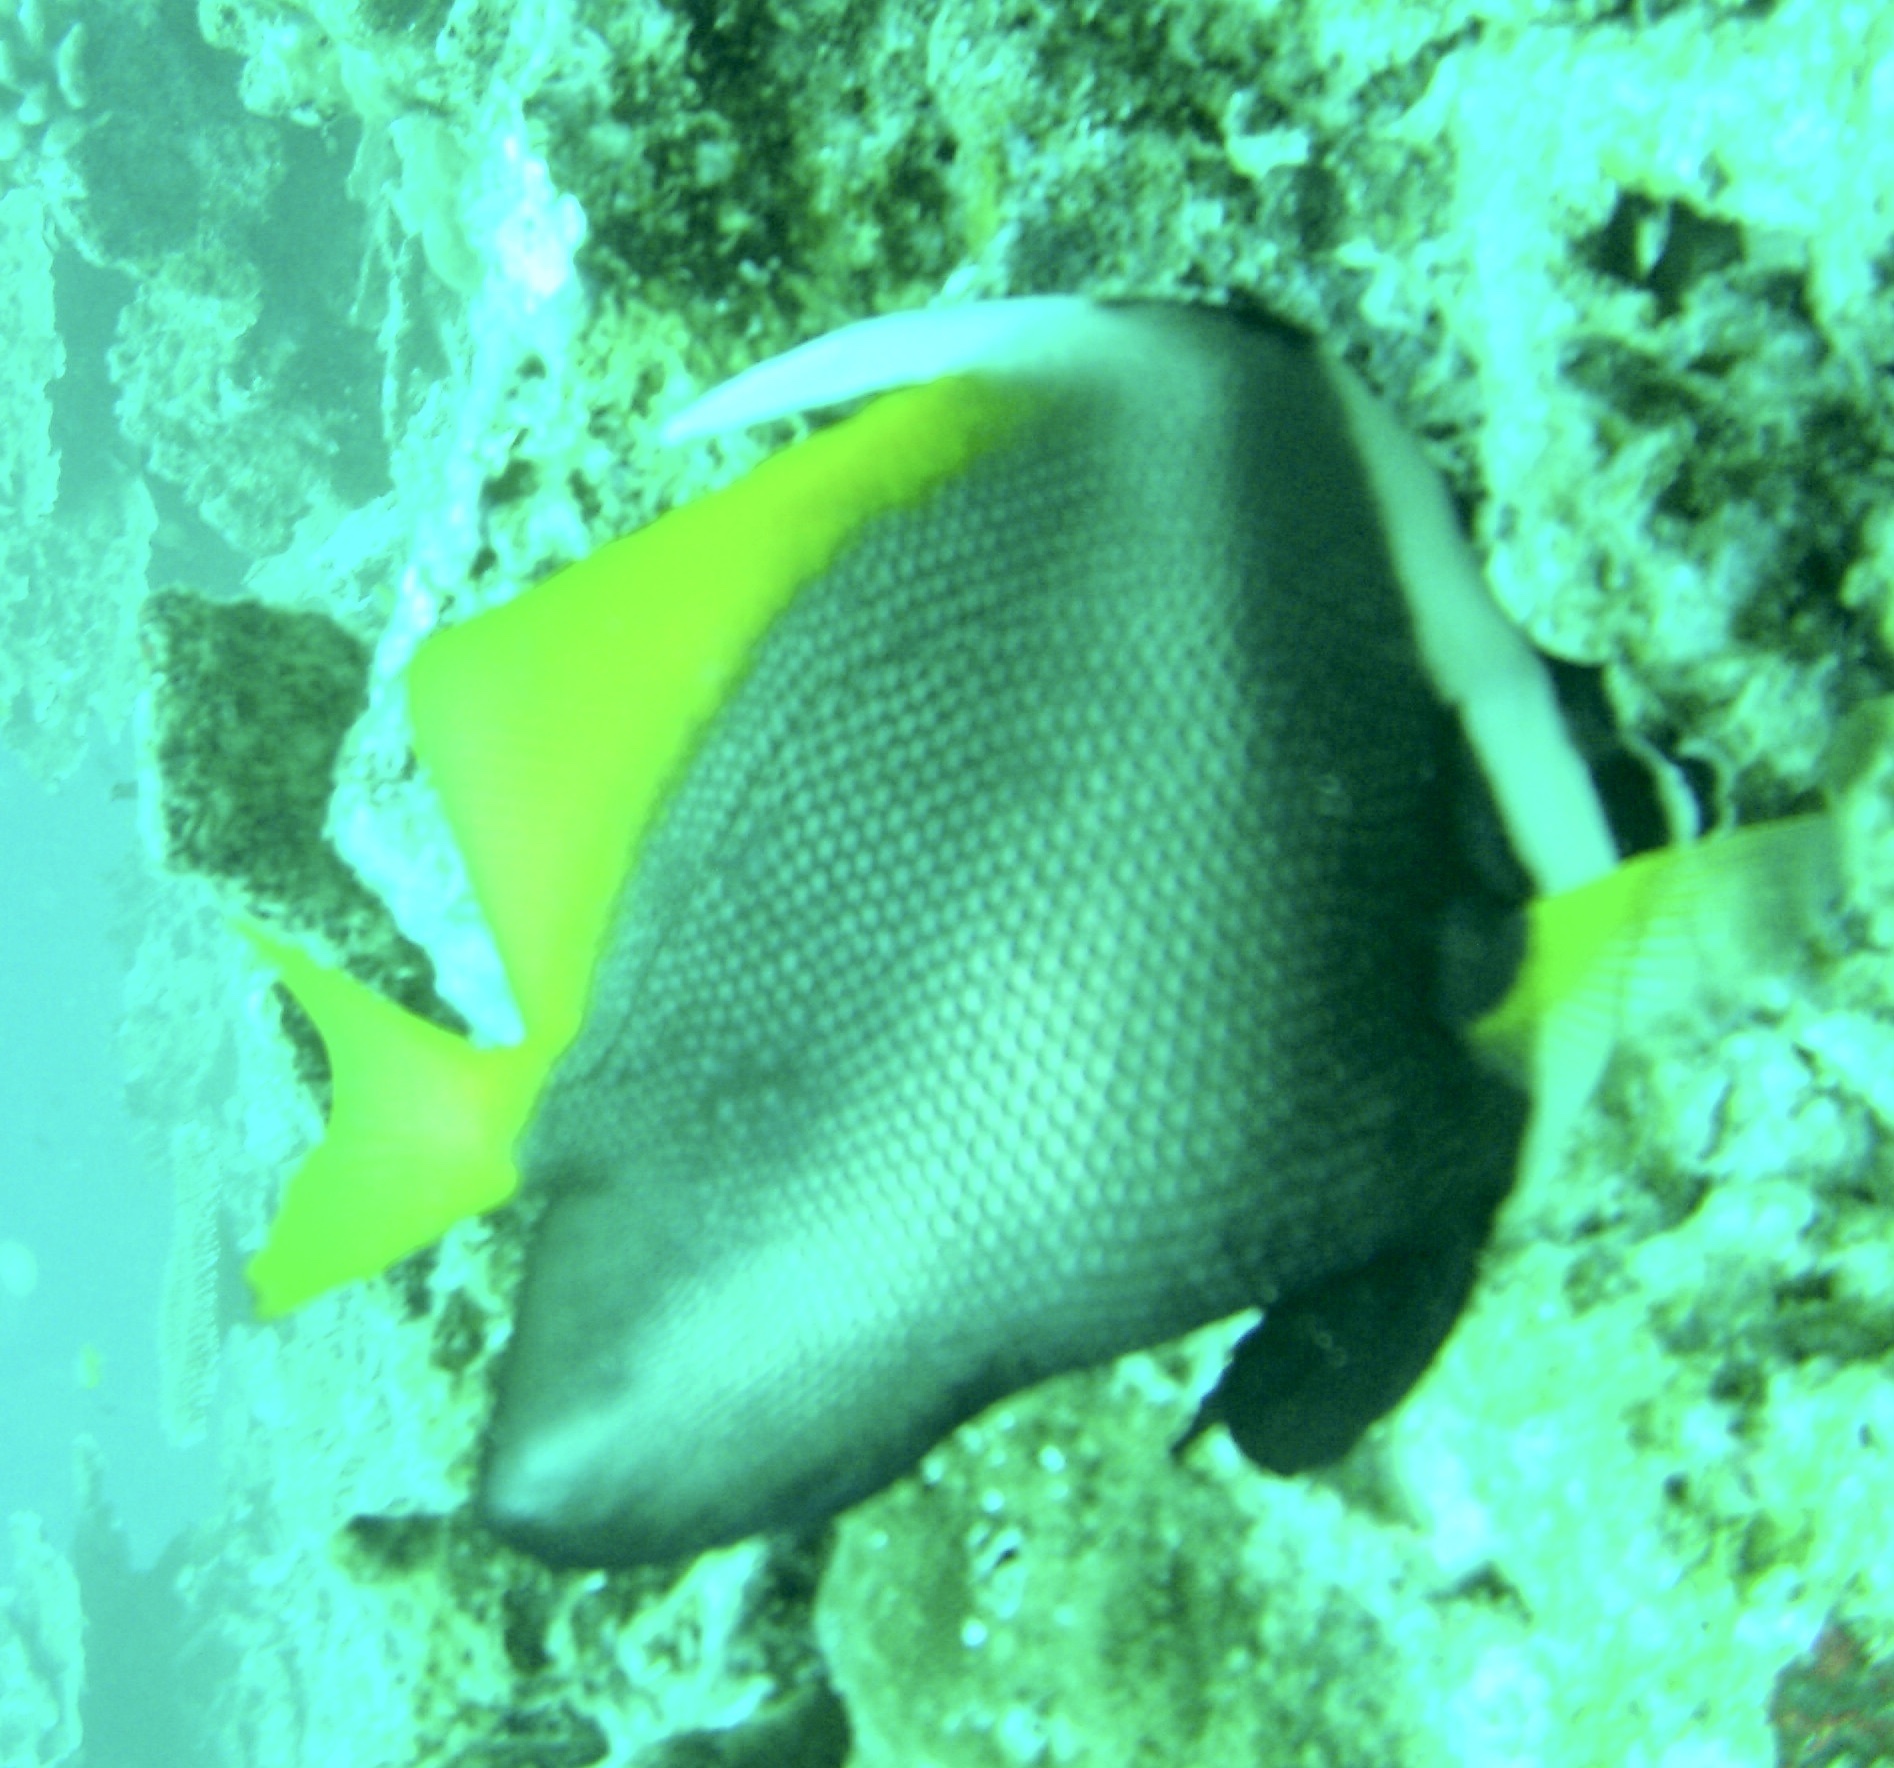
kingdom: Animalia
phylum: Chordata
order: Perciformes
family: Chaetodontidae
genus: Heniochus
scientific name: Heniochus singularius
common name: Singular bannerfish
